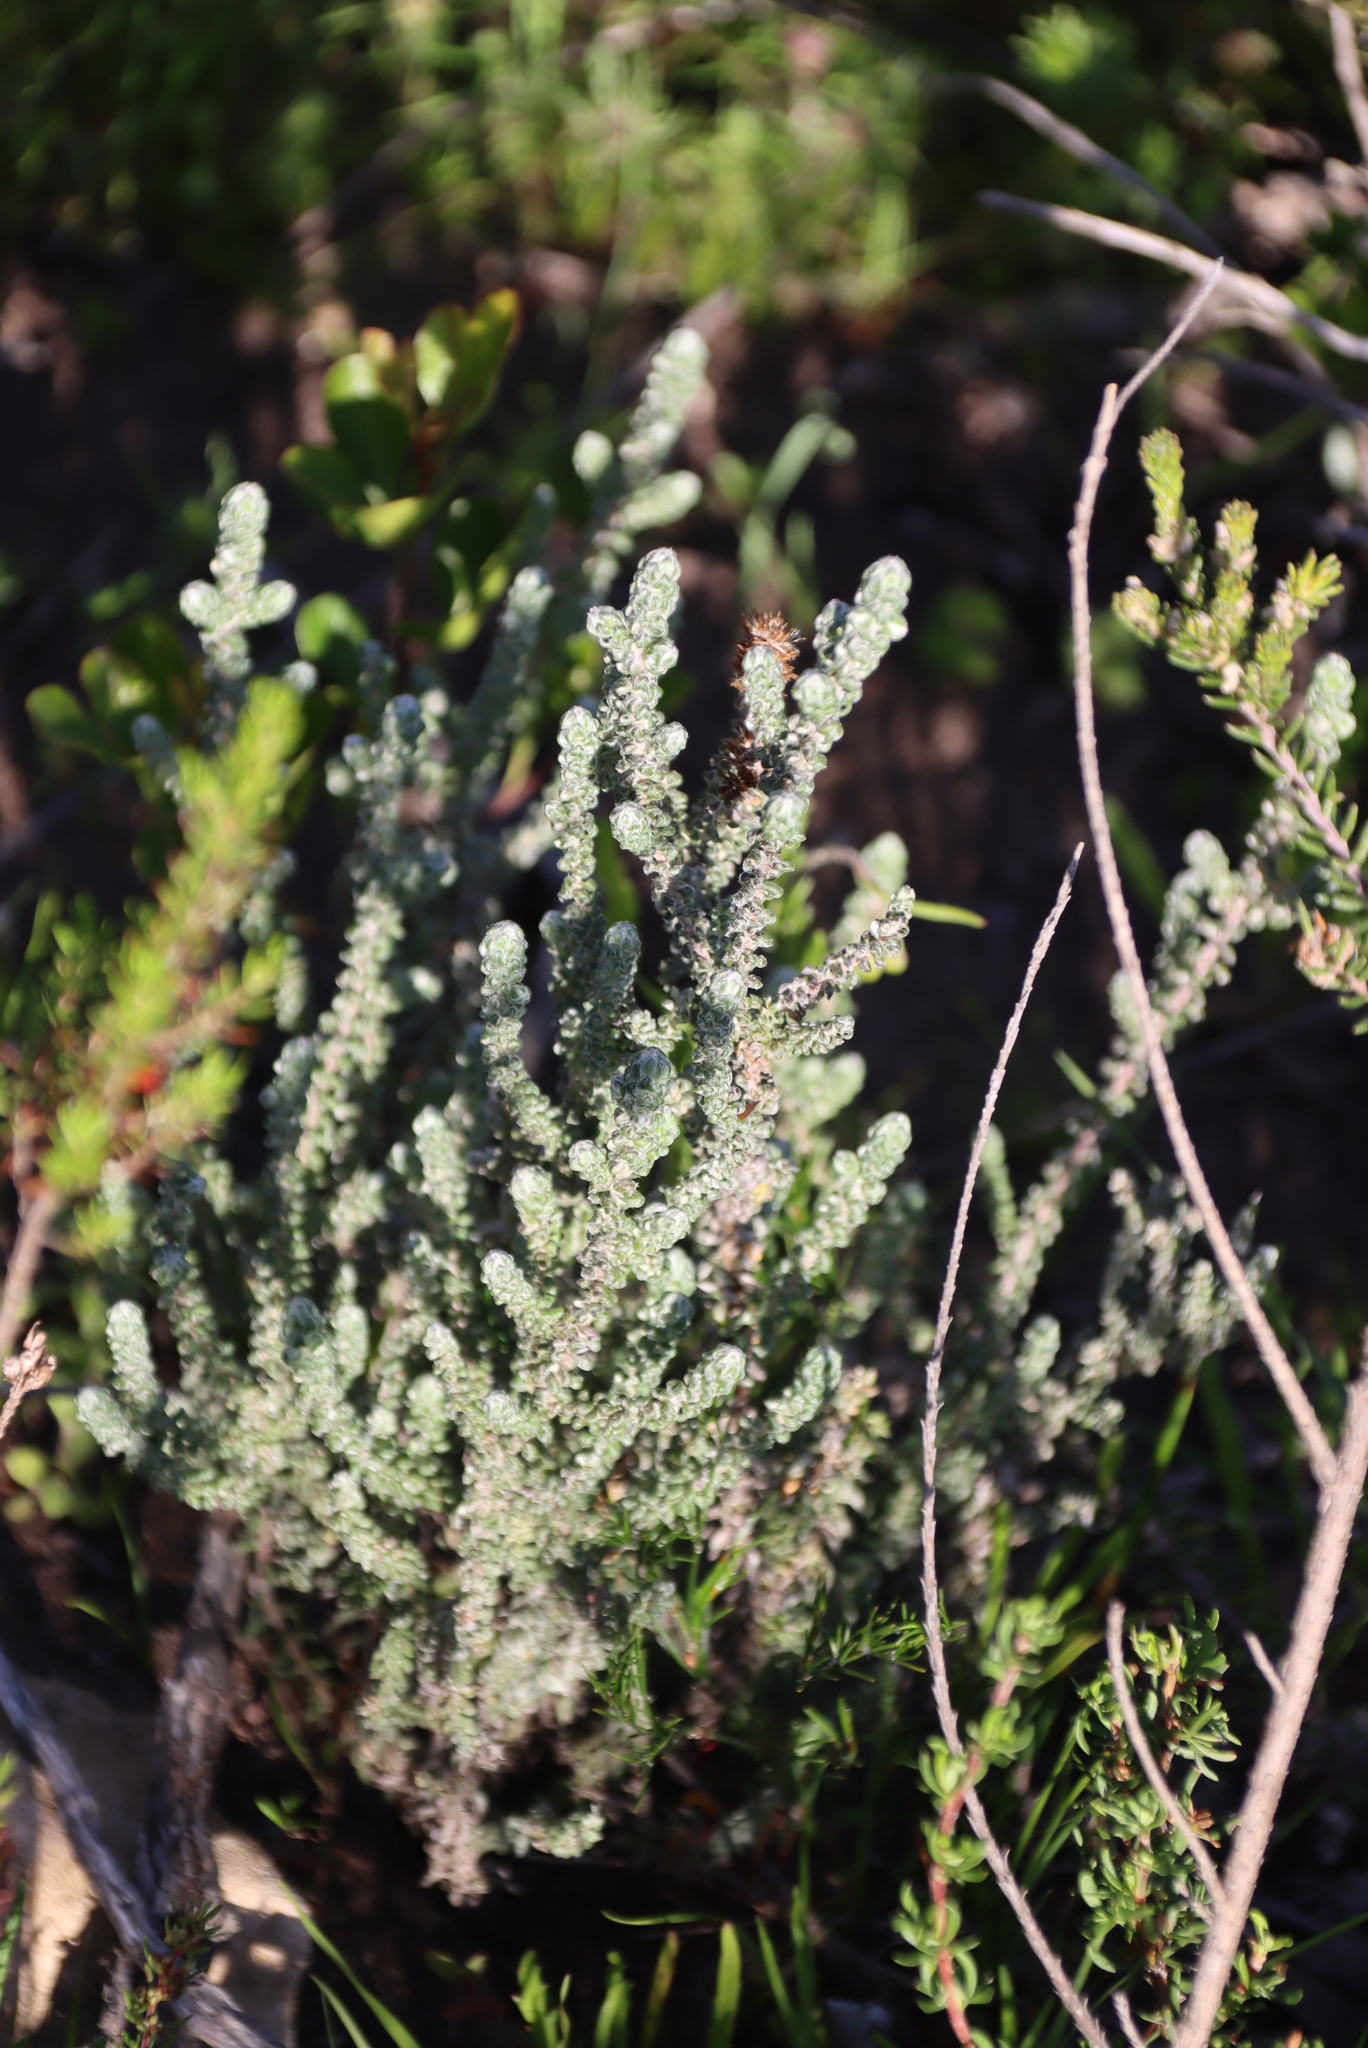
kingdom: Plantae
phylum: Tracheophyta
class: Magnoliopsida
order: Asterales
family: Asteraceae
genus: Seriphium
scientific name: Seriphium cinereum
